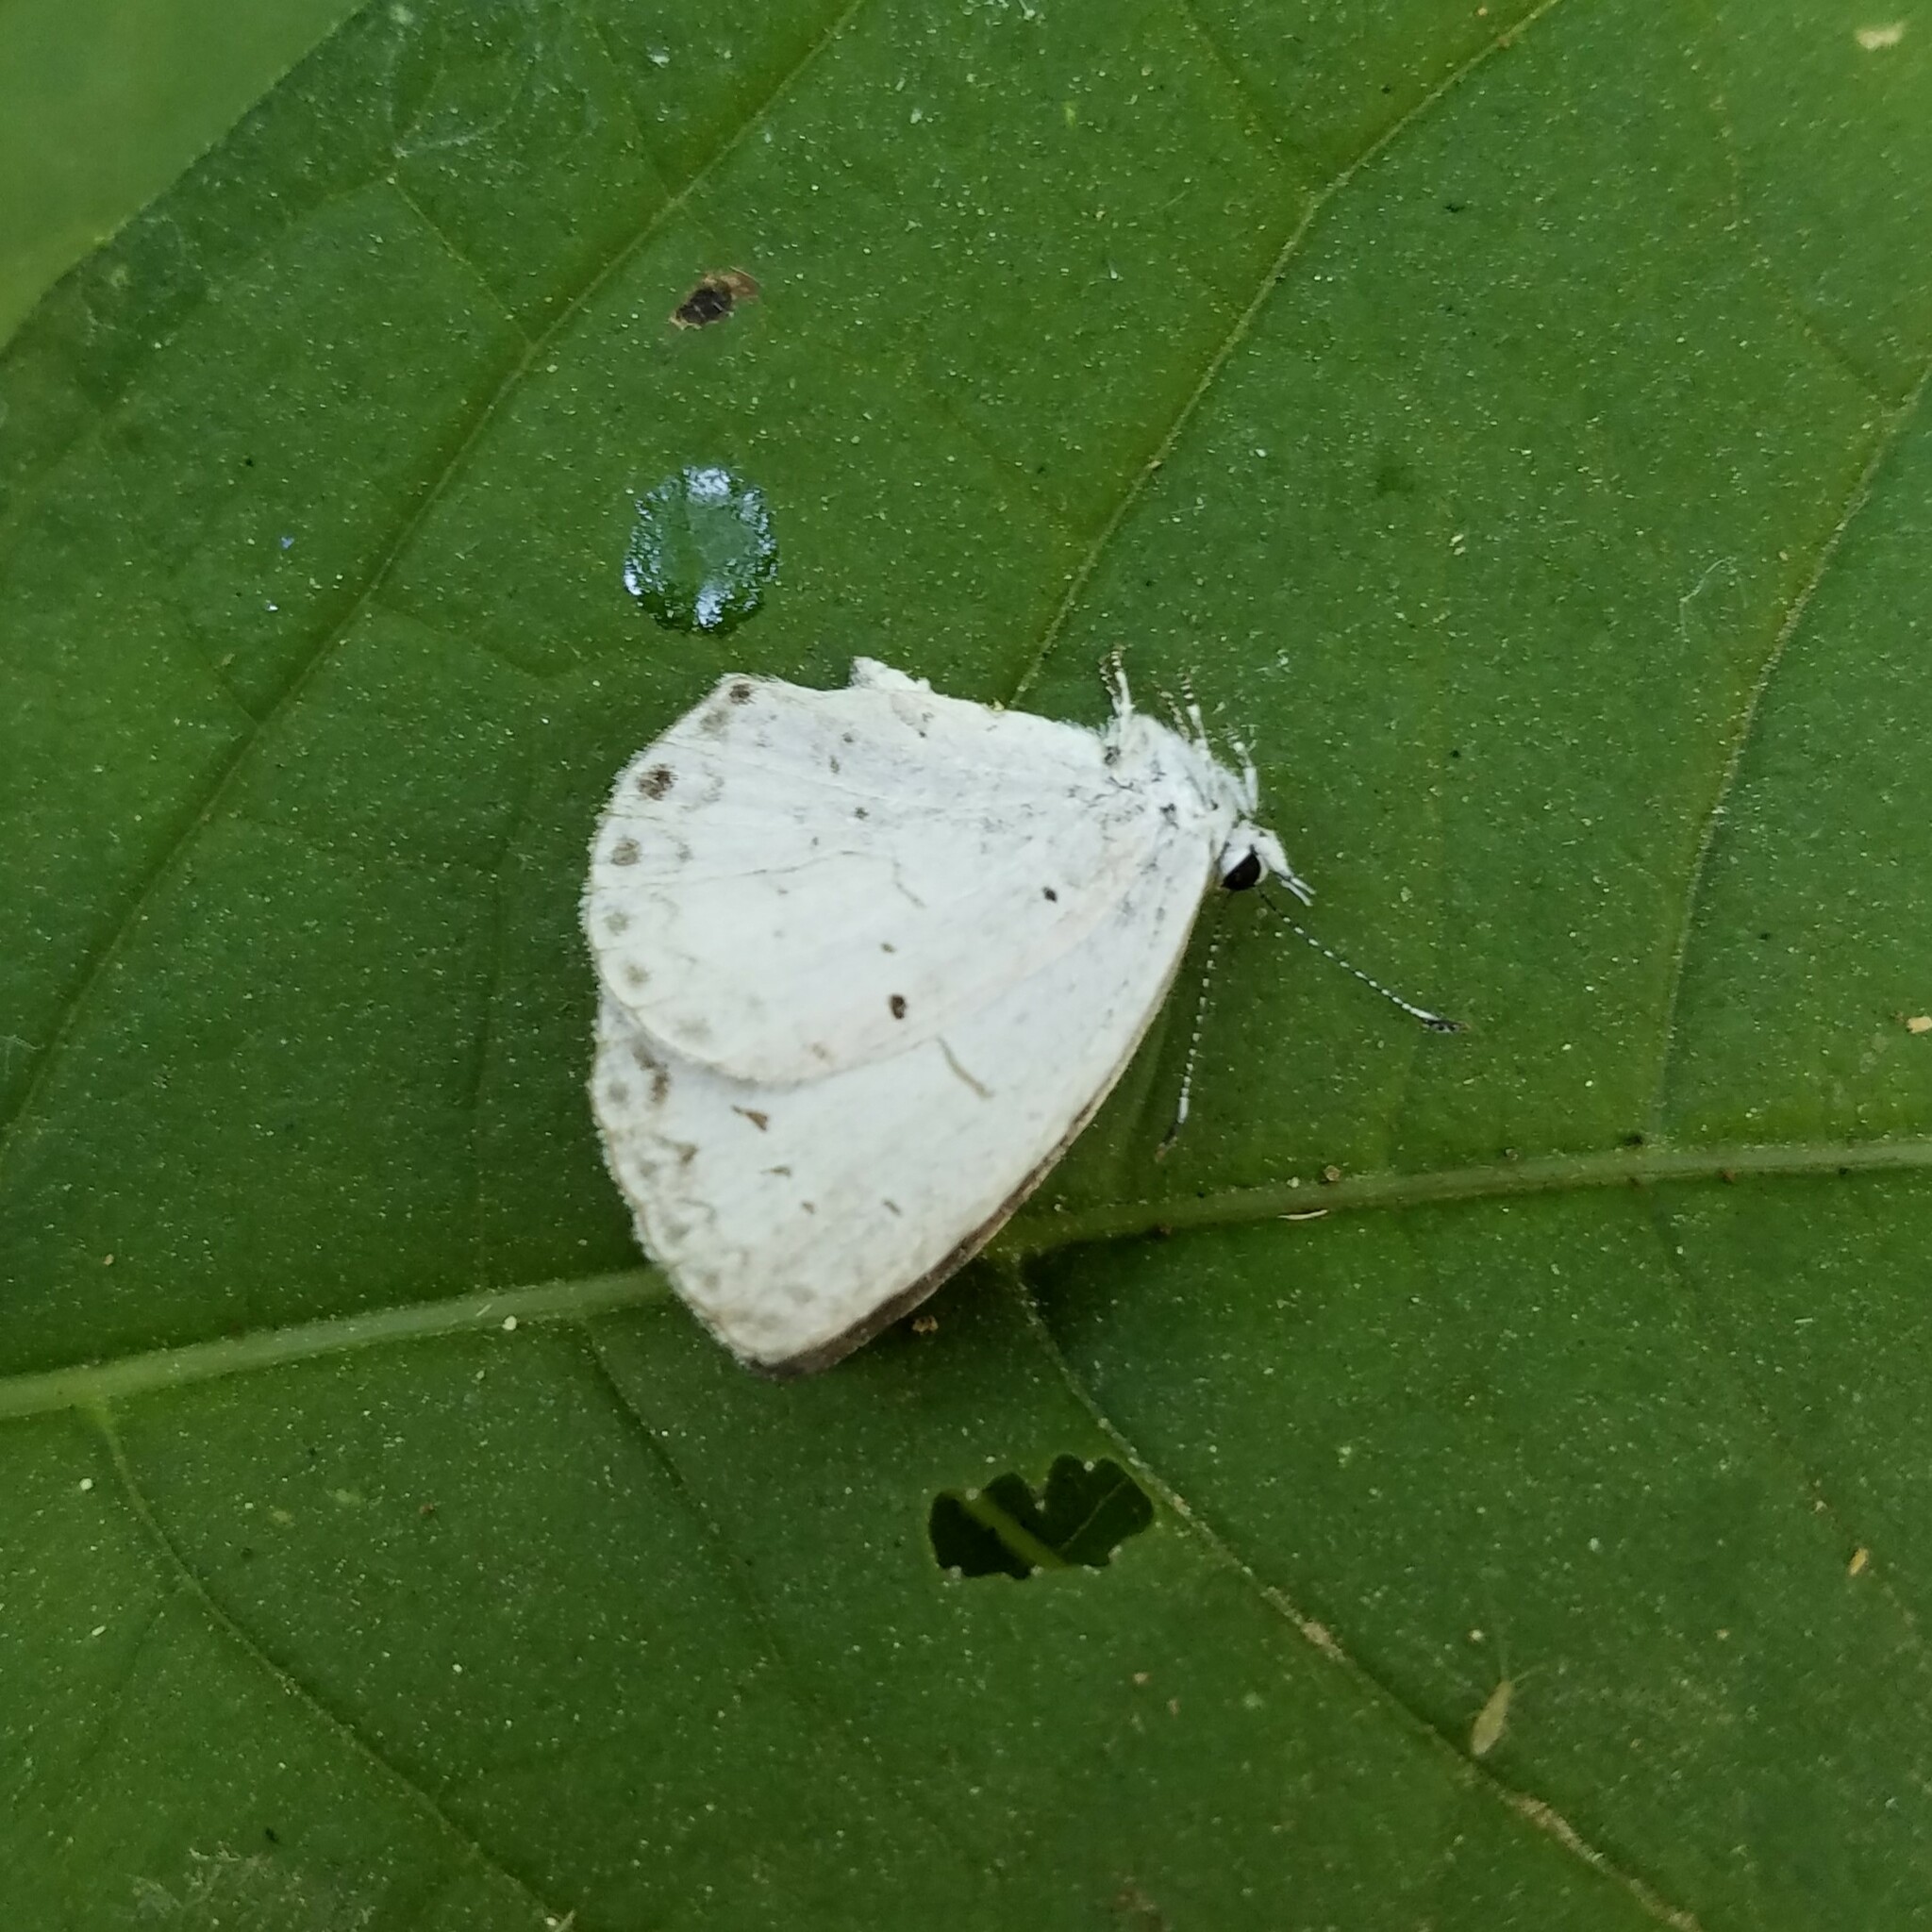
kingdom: Animalia
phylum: Arthropoda
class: Insecta
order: Lepidoptera
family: Lycaenidae
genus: Cyaniris
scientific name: Cyaniris neglecta
